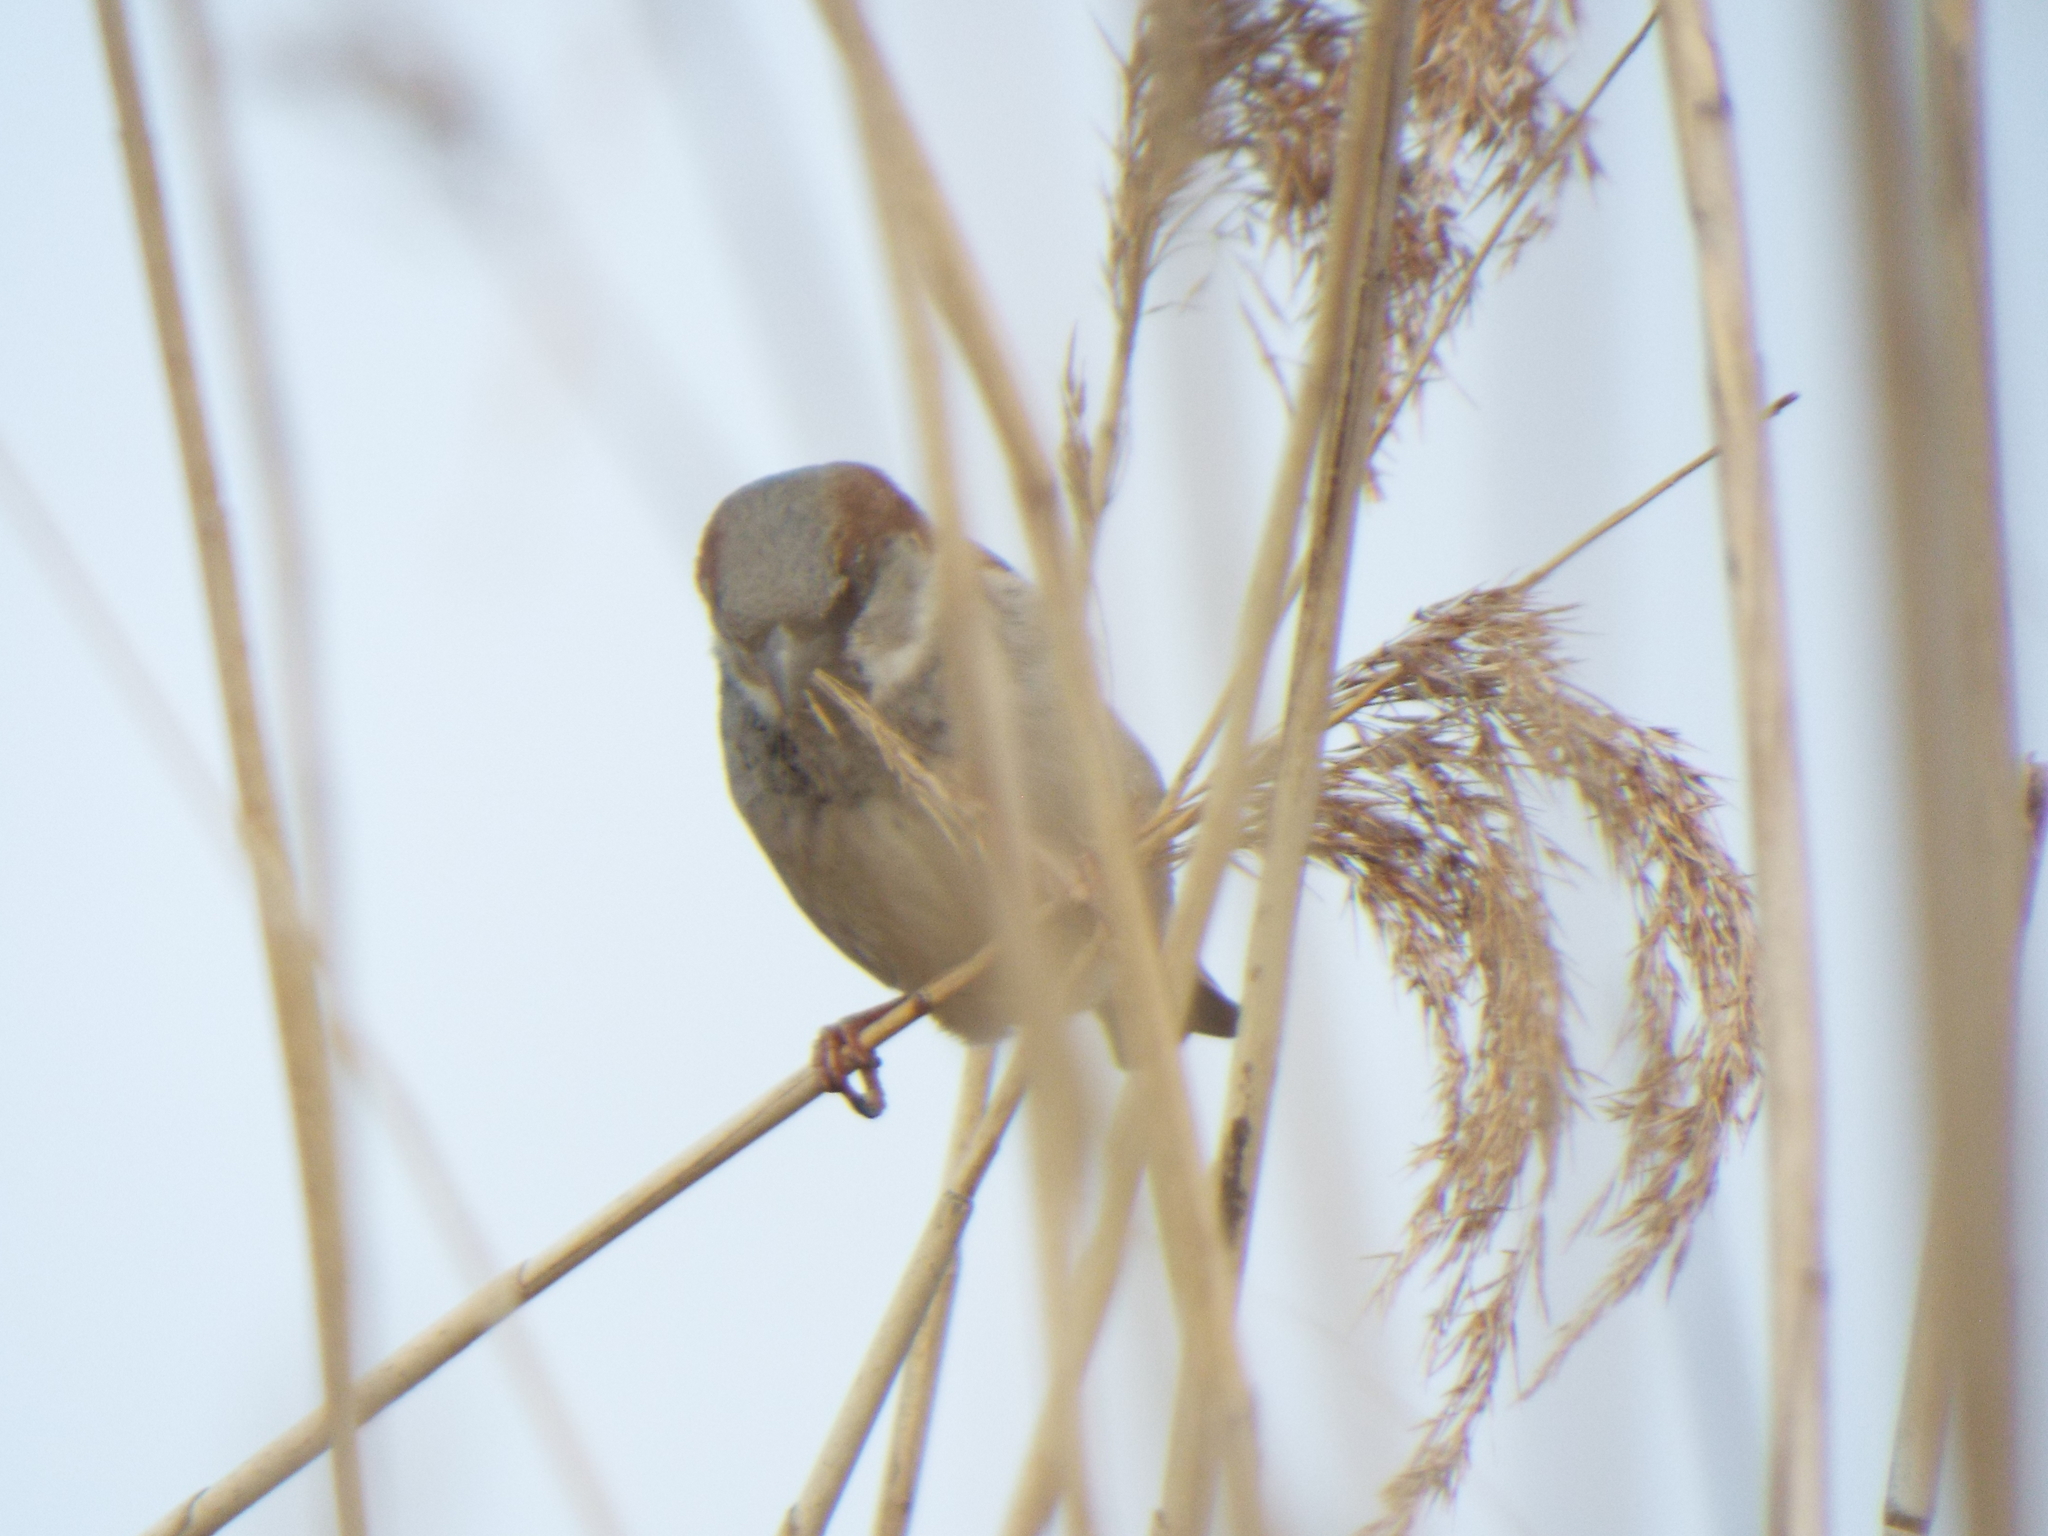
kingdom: Animalia
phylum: Chordata
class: Aves
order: Passeriformes
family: Passeridae
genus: Passer
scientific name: Passer domesticus
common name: House sparrow
